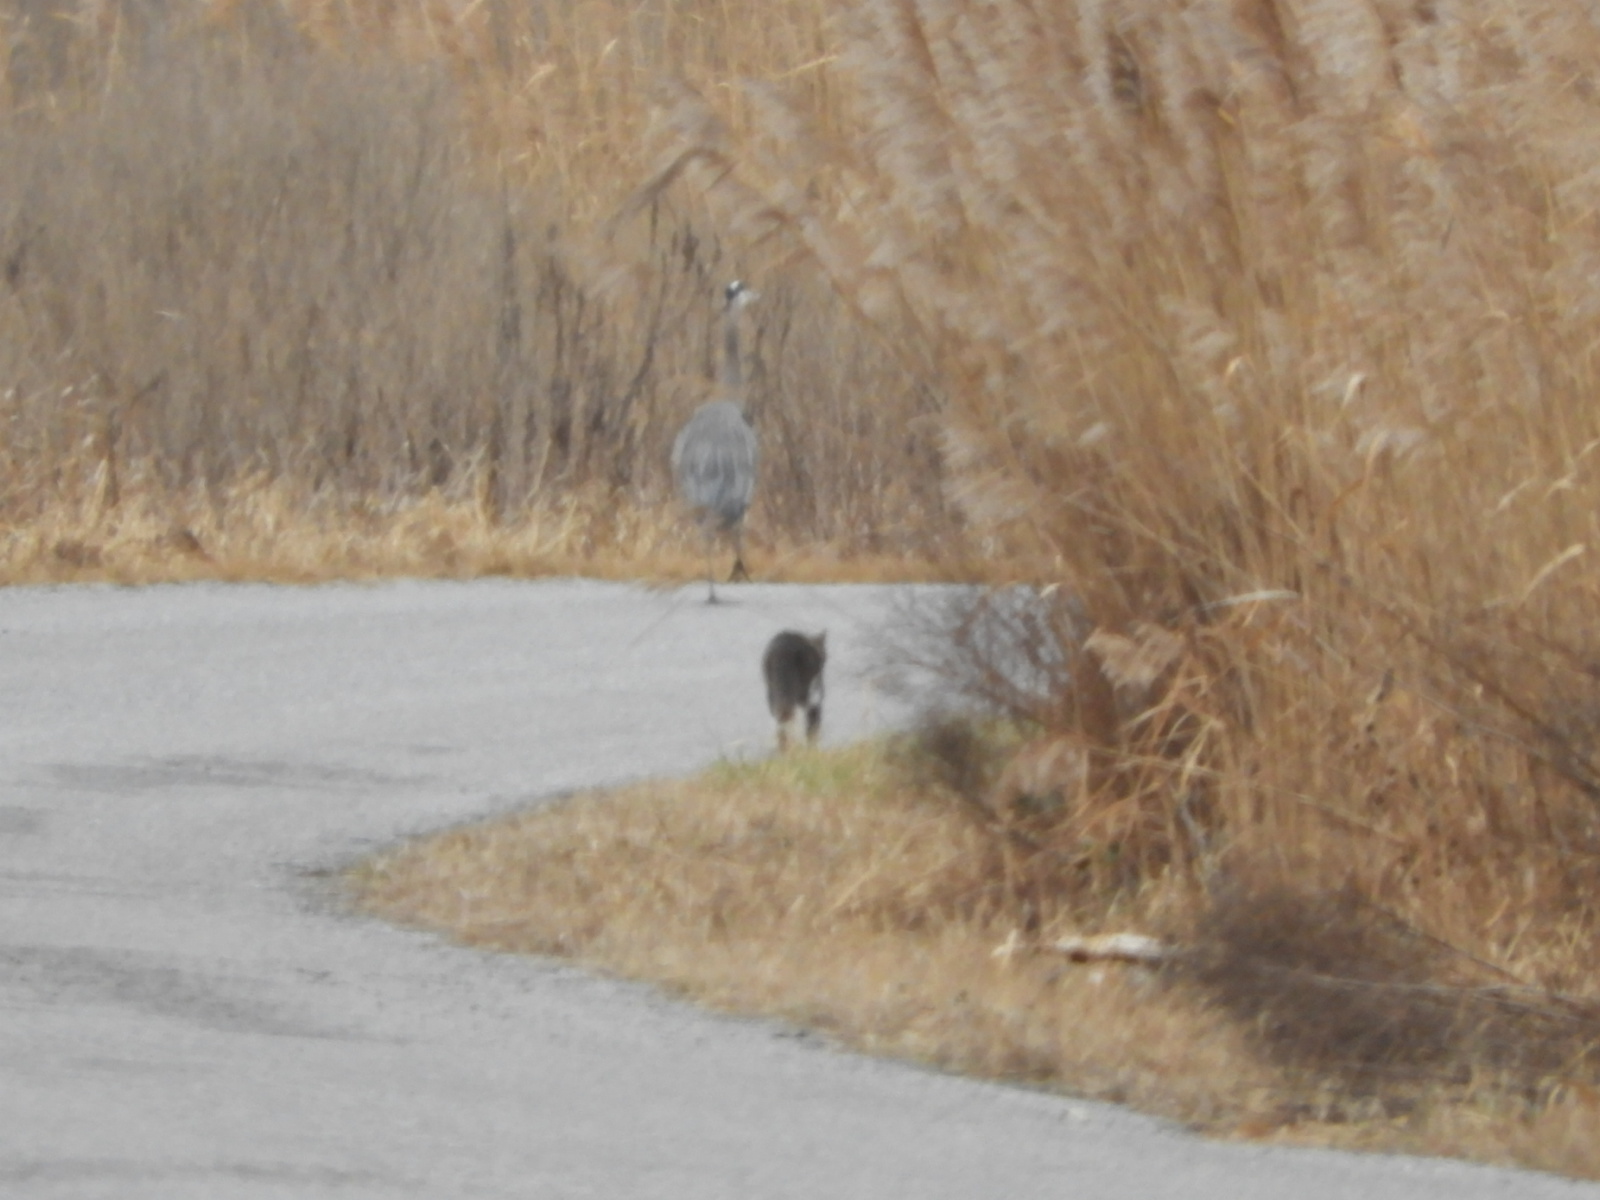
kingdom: Animalia
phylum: Chordata
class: Mammalia
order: Carnivora
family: Canidae
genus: Urocyon
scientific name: Urocyon cinereoargenteus
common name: Gray fox
